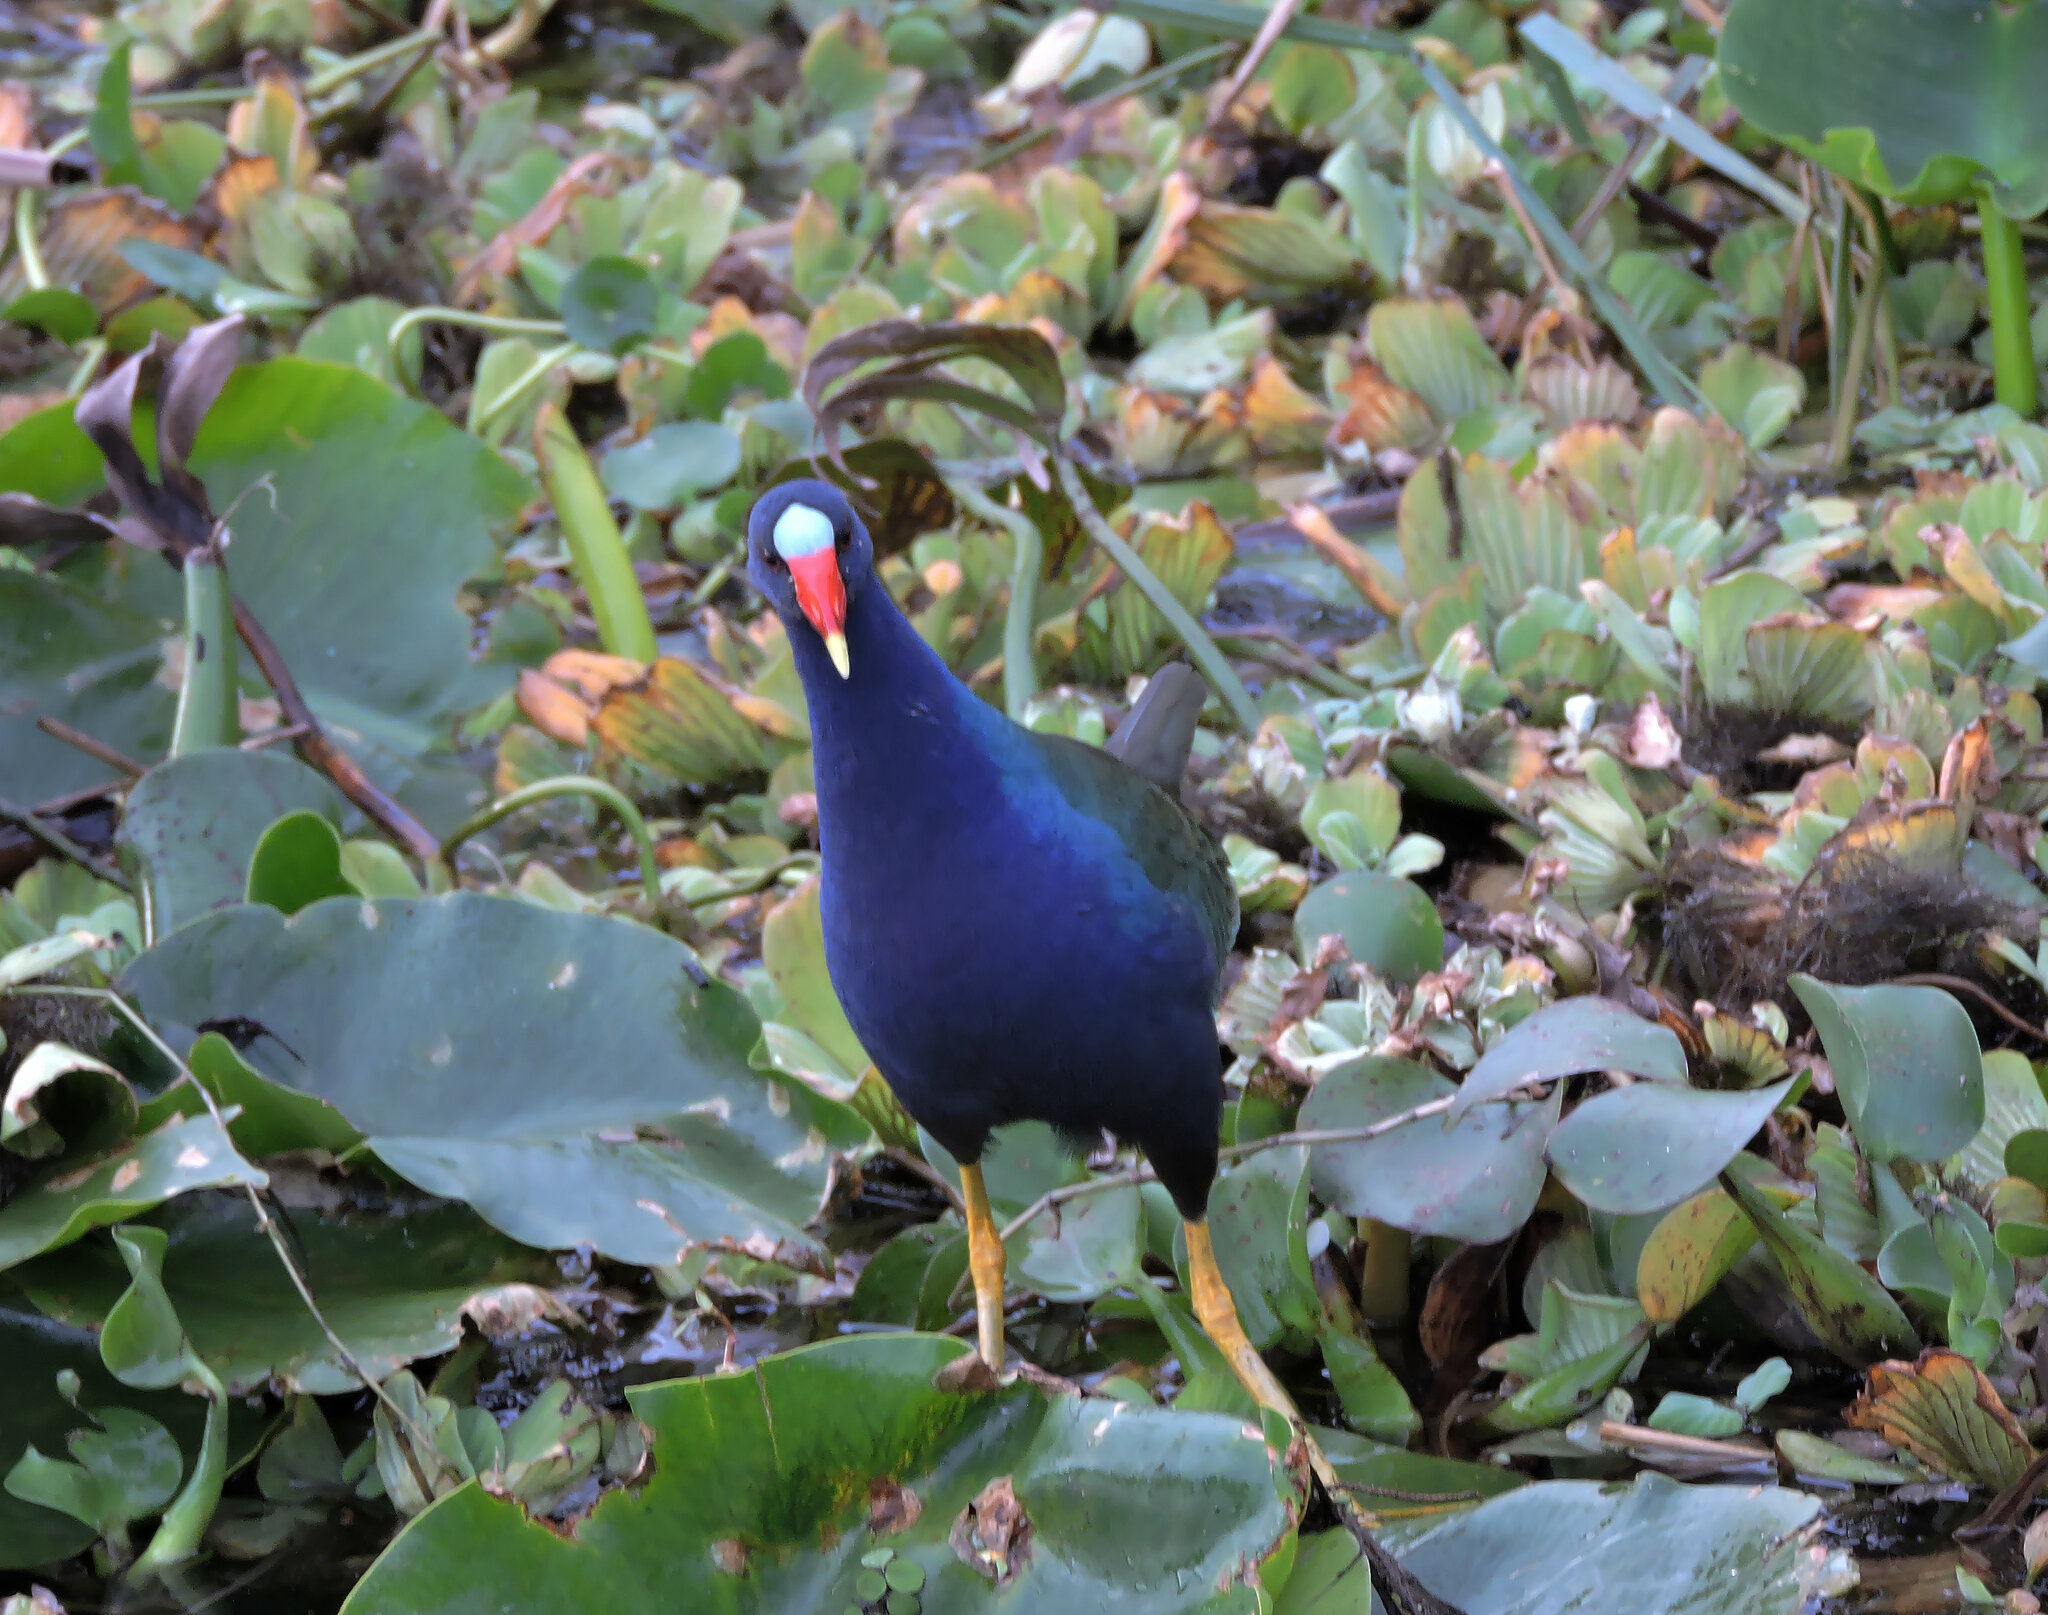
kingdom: Animalia
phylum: Chordata
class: Aves
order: Gruiformes
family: Rallidae
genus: Porphyrio
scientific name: Porphyrio martinica
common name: Purple gallinule
